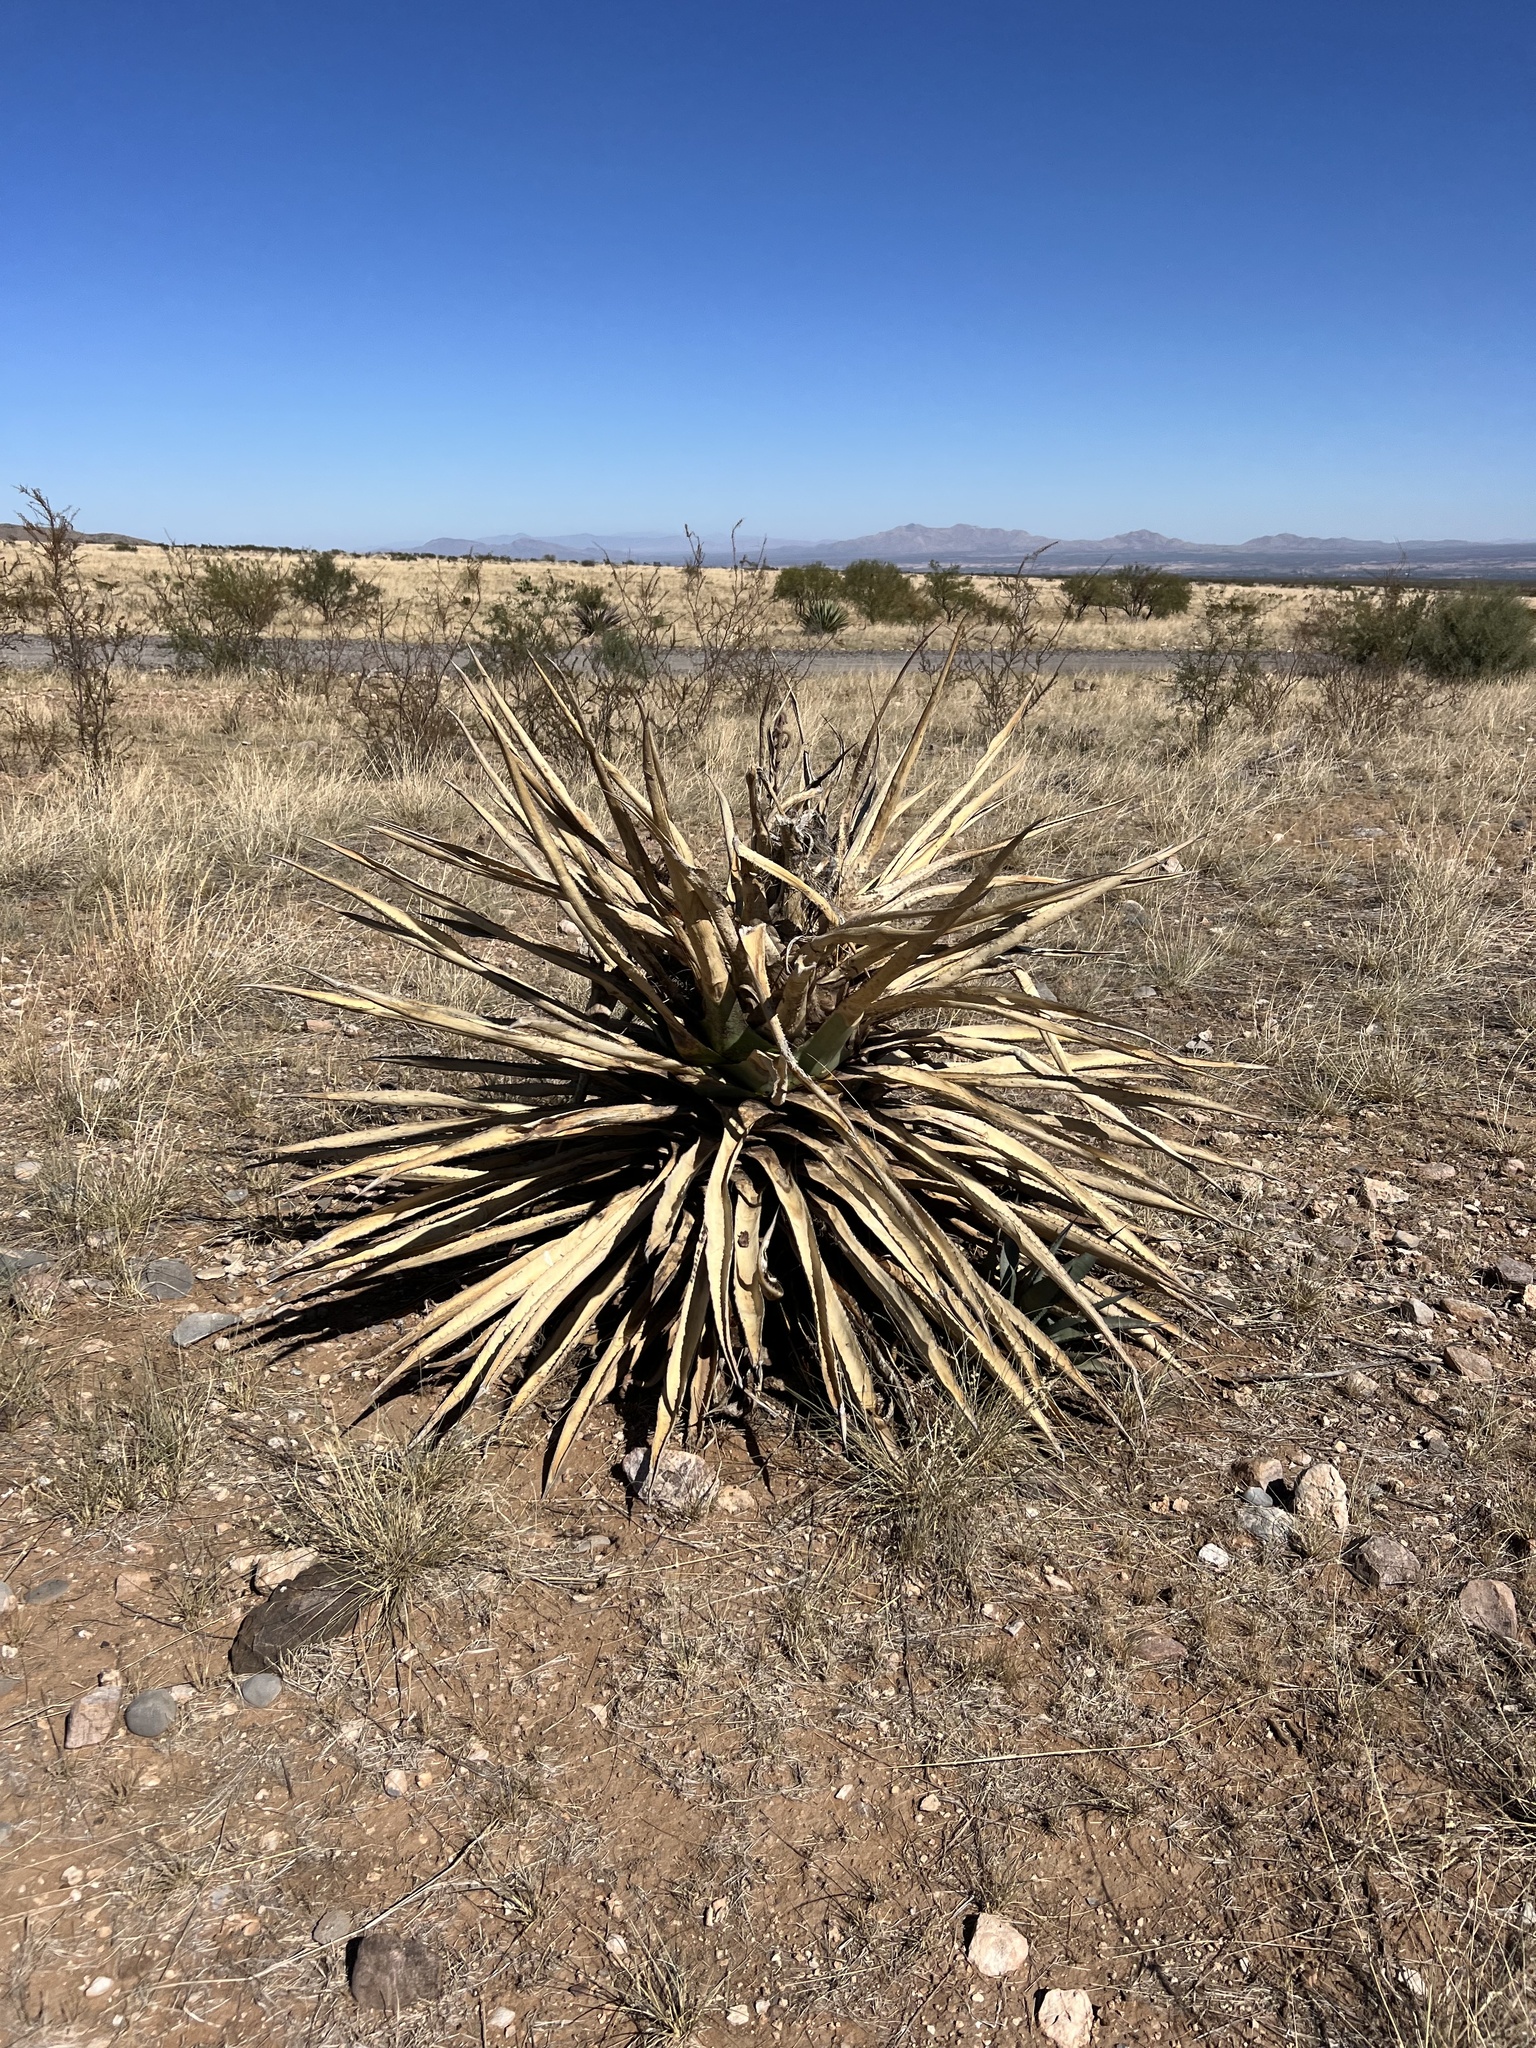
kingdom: Plantae
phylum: Tracheophyta
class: Liliopsida
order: Asparagales
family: Asparagaceae
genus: Agave
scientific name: Agave palmeri
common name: Palmer agave
